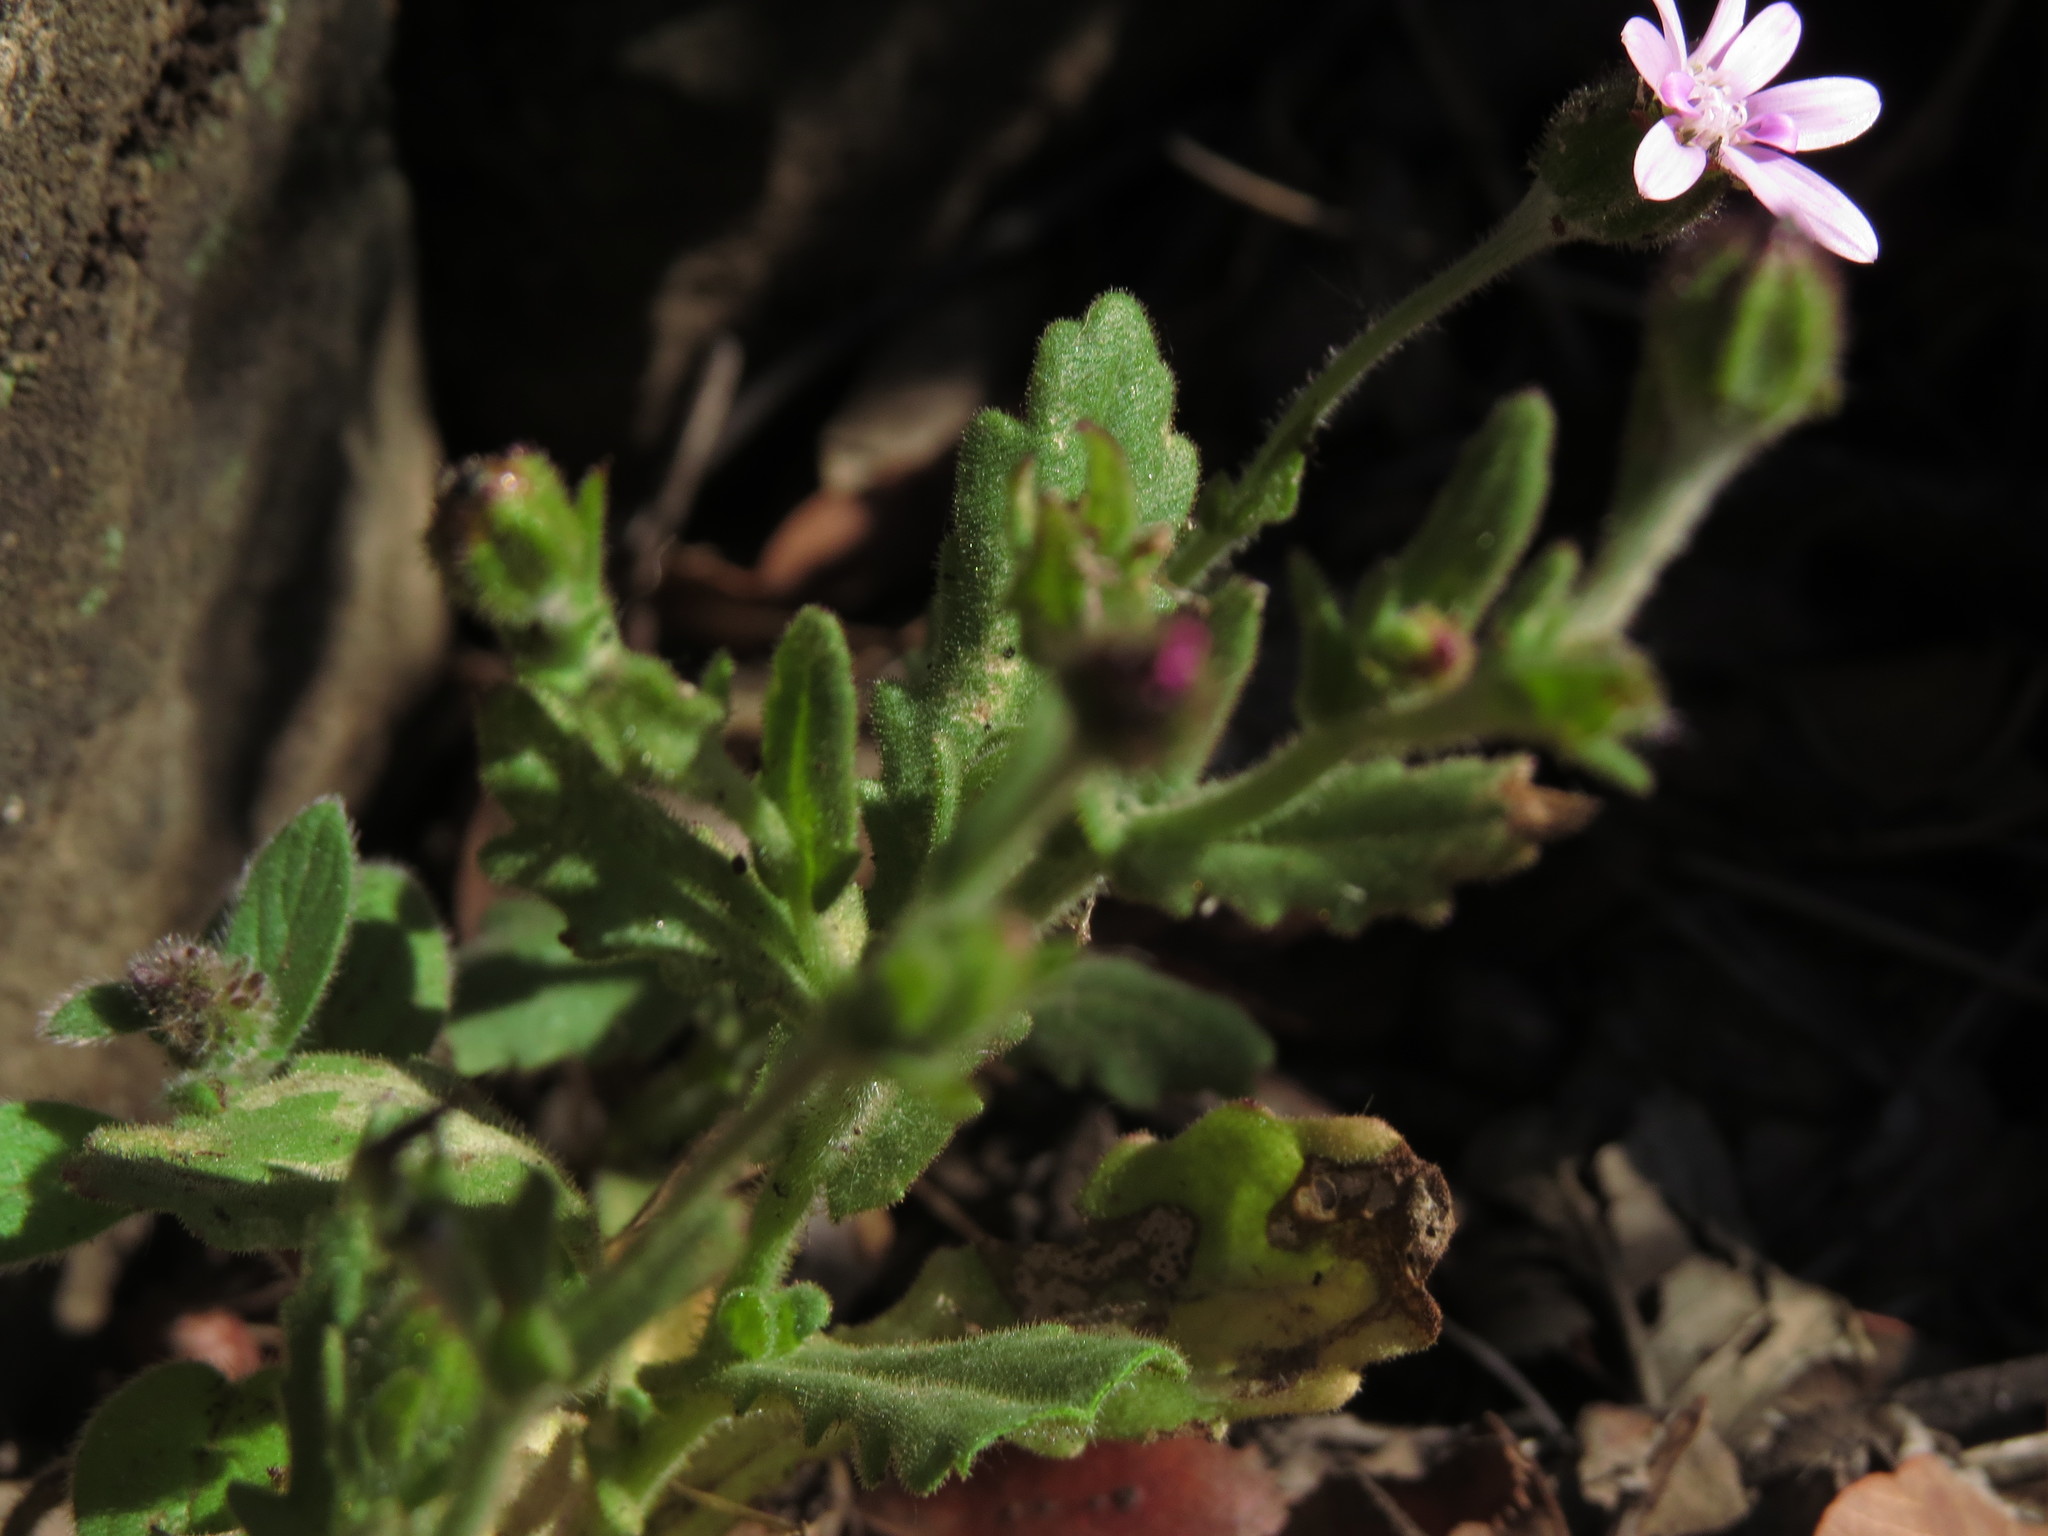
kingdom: Plantae
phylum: Tracheophyta
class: Magnoliopsida
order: Asterales
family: Asteraceae
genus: Leucheria
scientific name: Leucheria glandulosa
